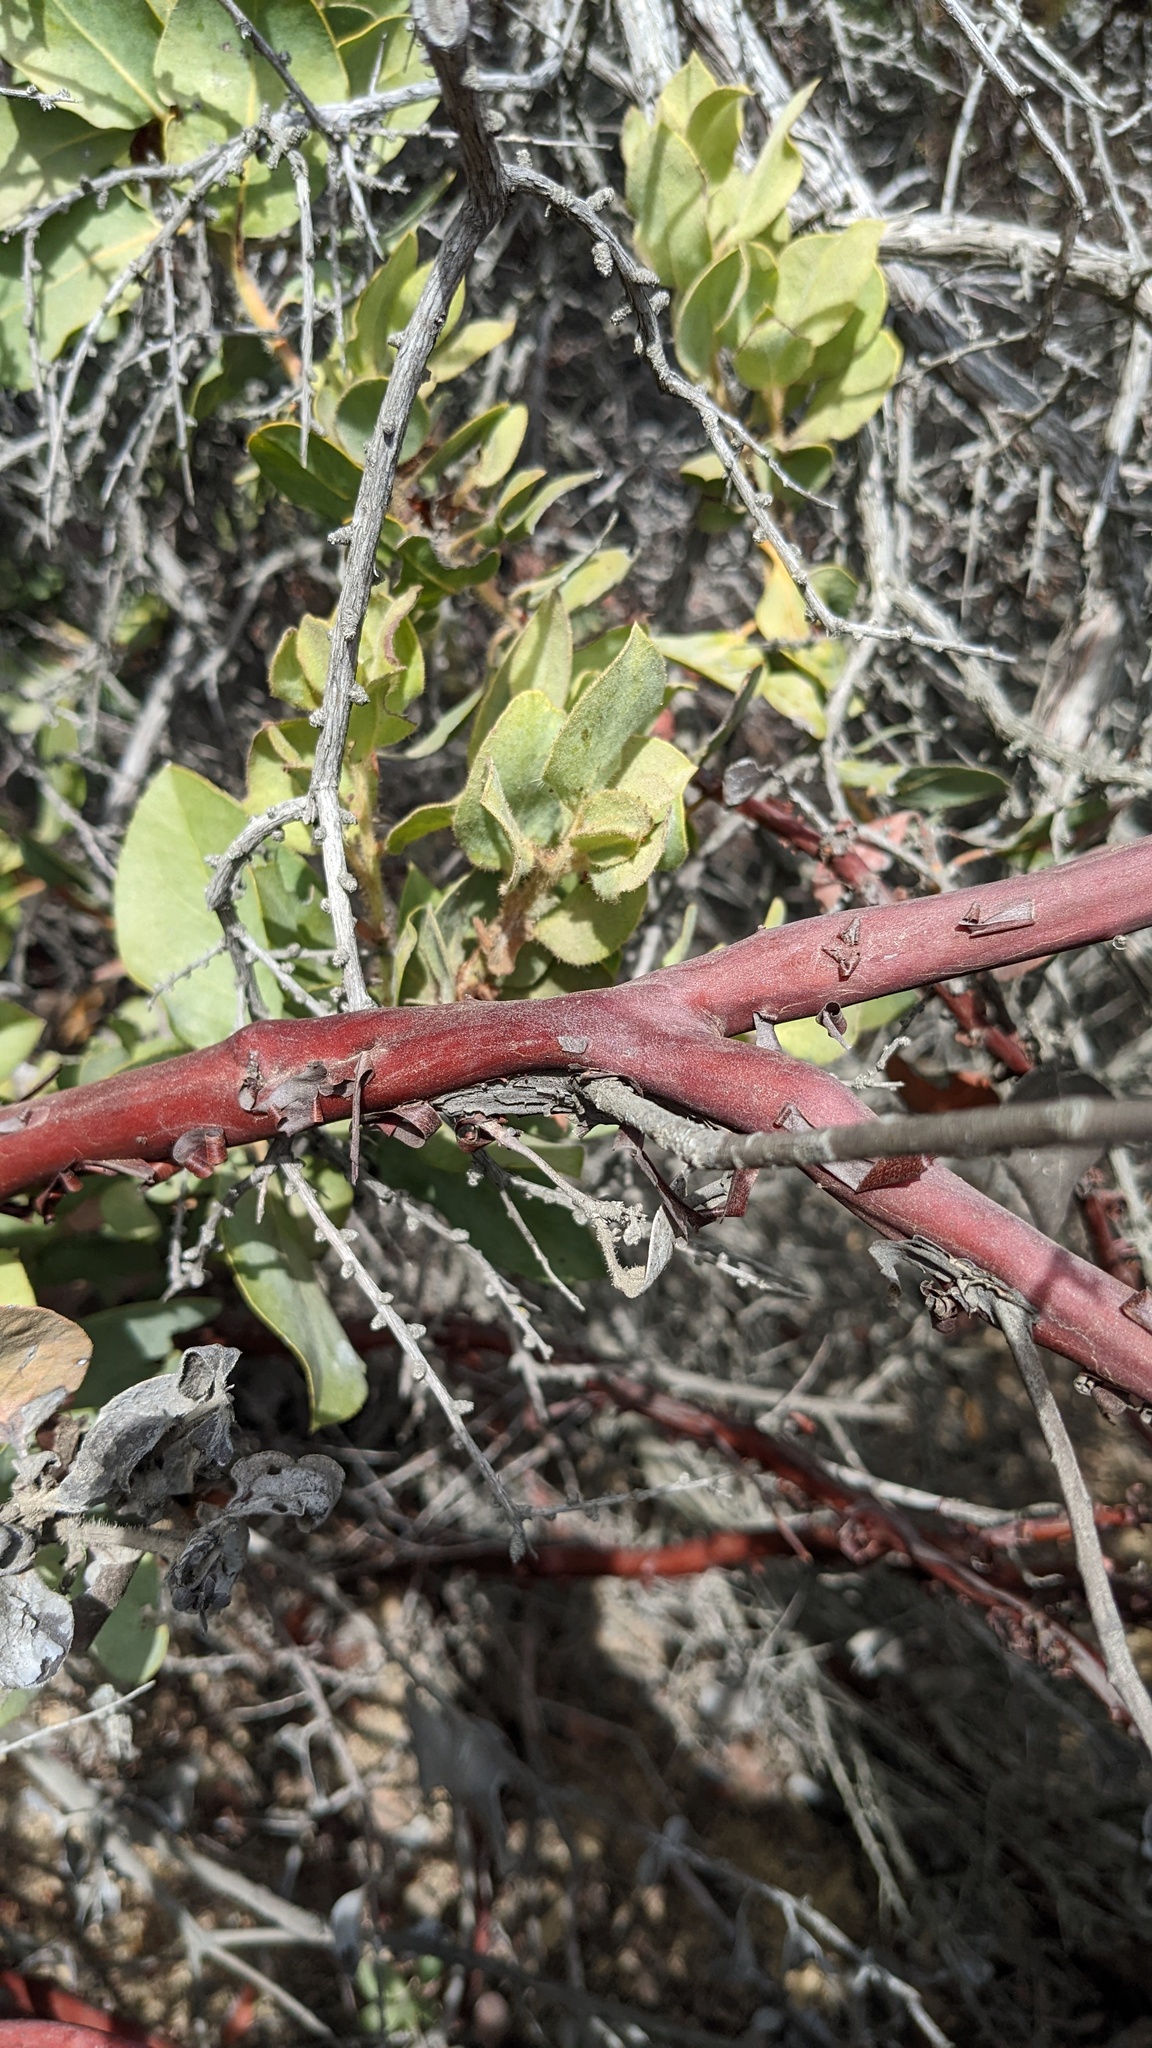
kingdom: Plantae
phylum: Tracheophyta
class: Magnoliopsida
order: Ericales
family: Ericaceae
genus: Arctostaphylos
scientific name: Arctostaphylos glandulosa
